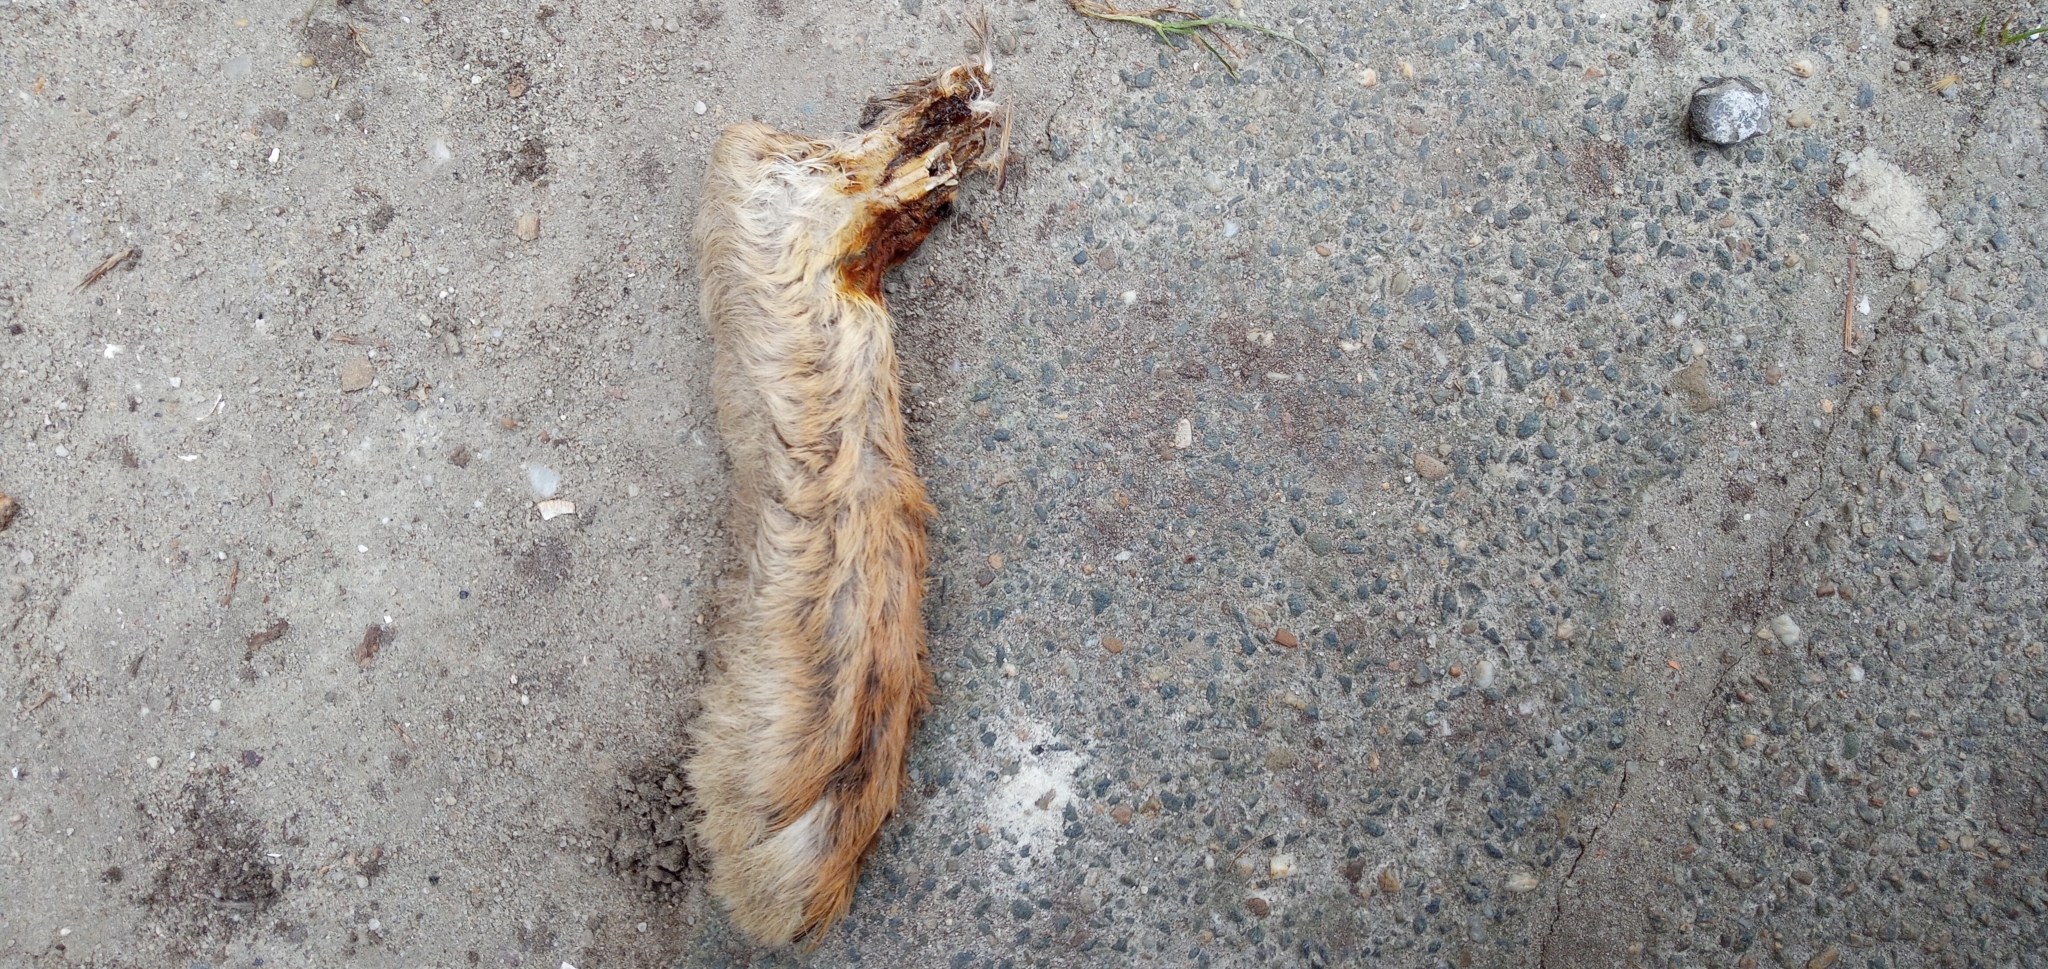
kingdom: Animalia
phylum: Chordata
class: Mammalia
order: Lagomorpha
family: Leporidae
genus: Lepus
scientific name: Lepus europaeus
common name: European hare
